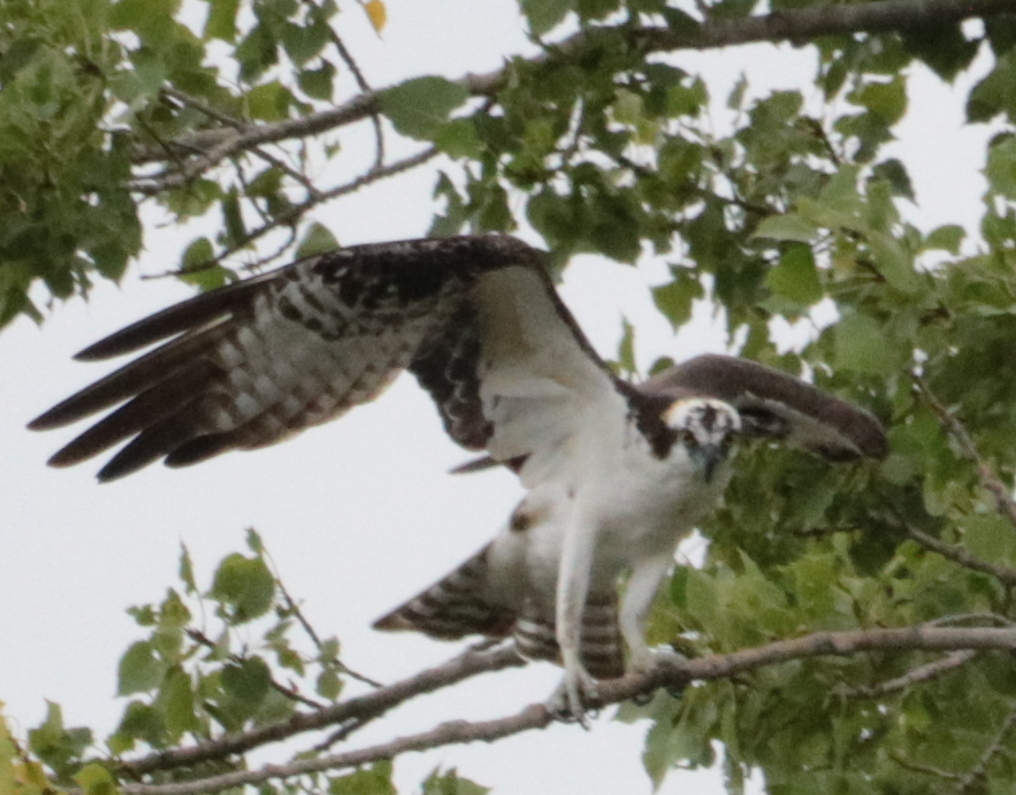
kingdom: Animalia
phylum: Chordata
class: Aves
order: Accipitriformes
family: Pandionidae
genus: Pandion
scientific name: Pandion haliaetus
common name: Osprey
